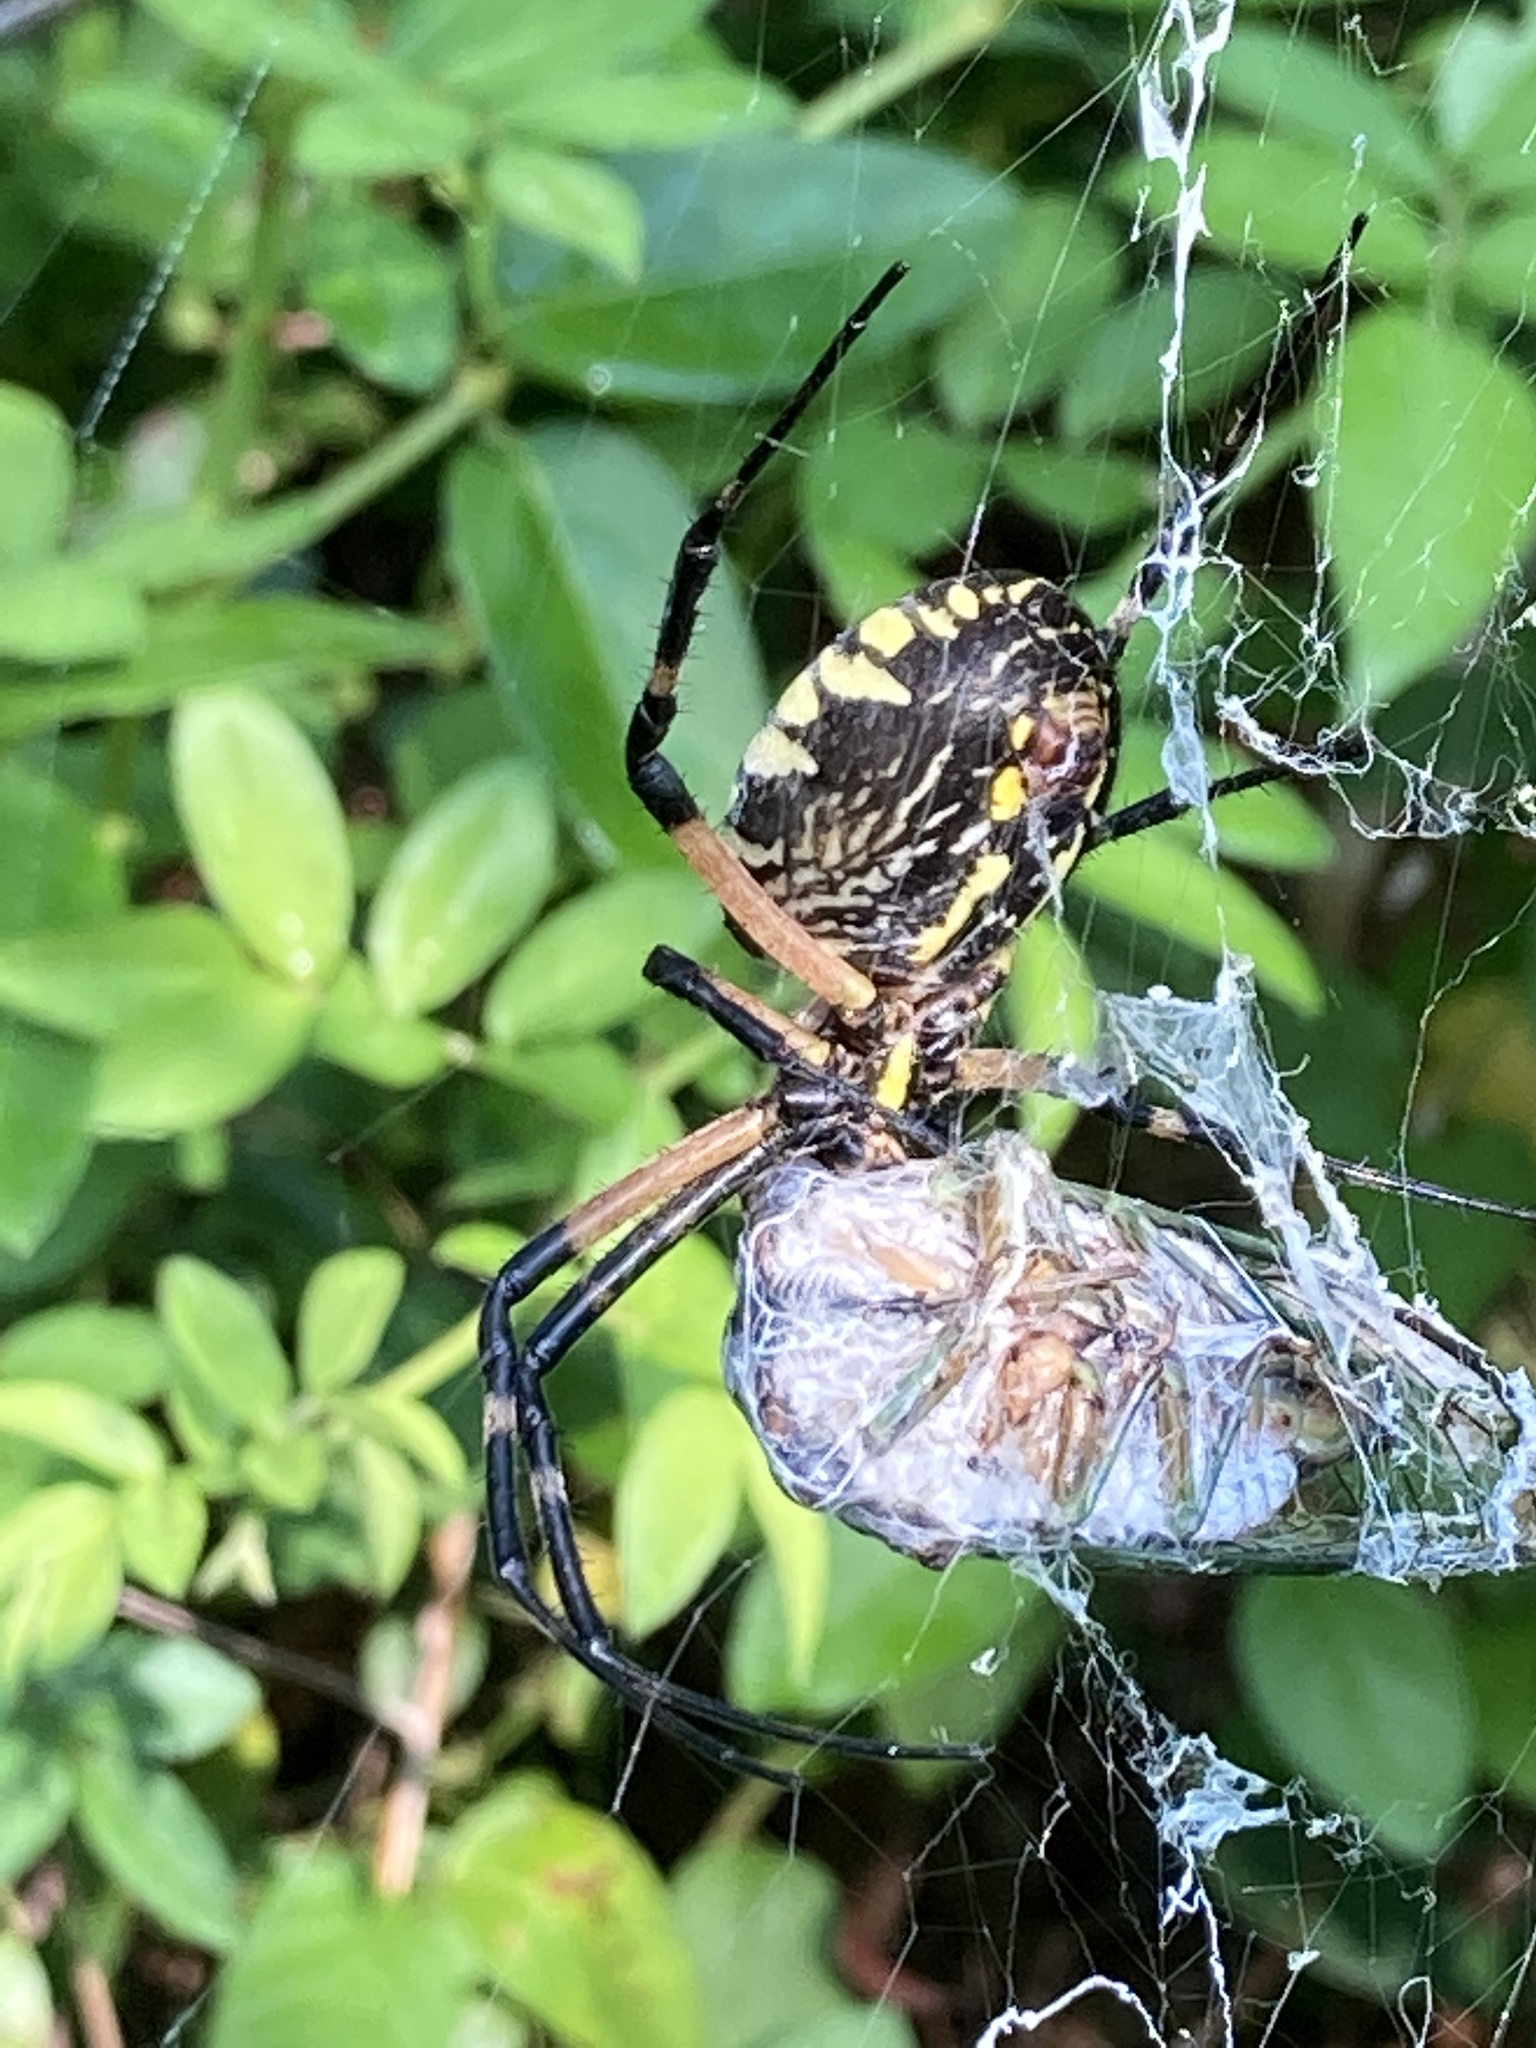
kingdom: Animalia
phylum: Arthropoda
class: Arachnida
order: Araneae
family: Araneidae
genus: Argiope
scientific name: Argiope aurantia
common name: Orb weavers
